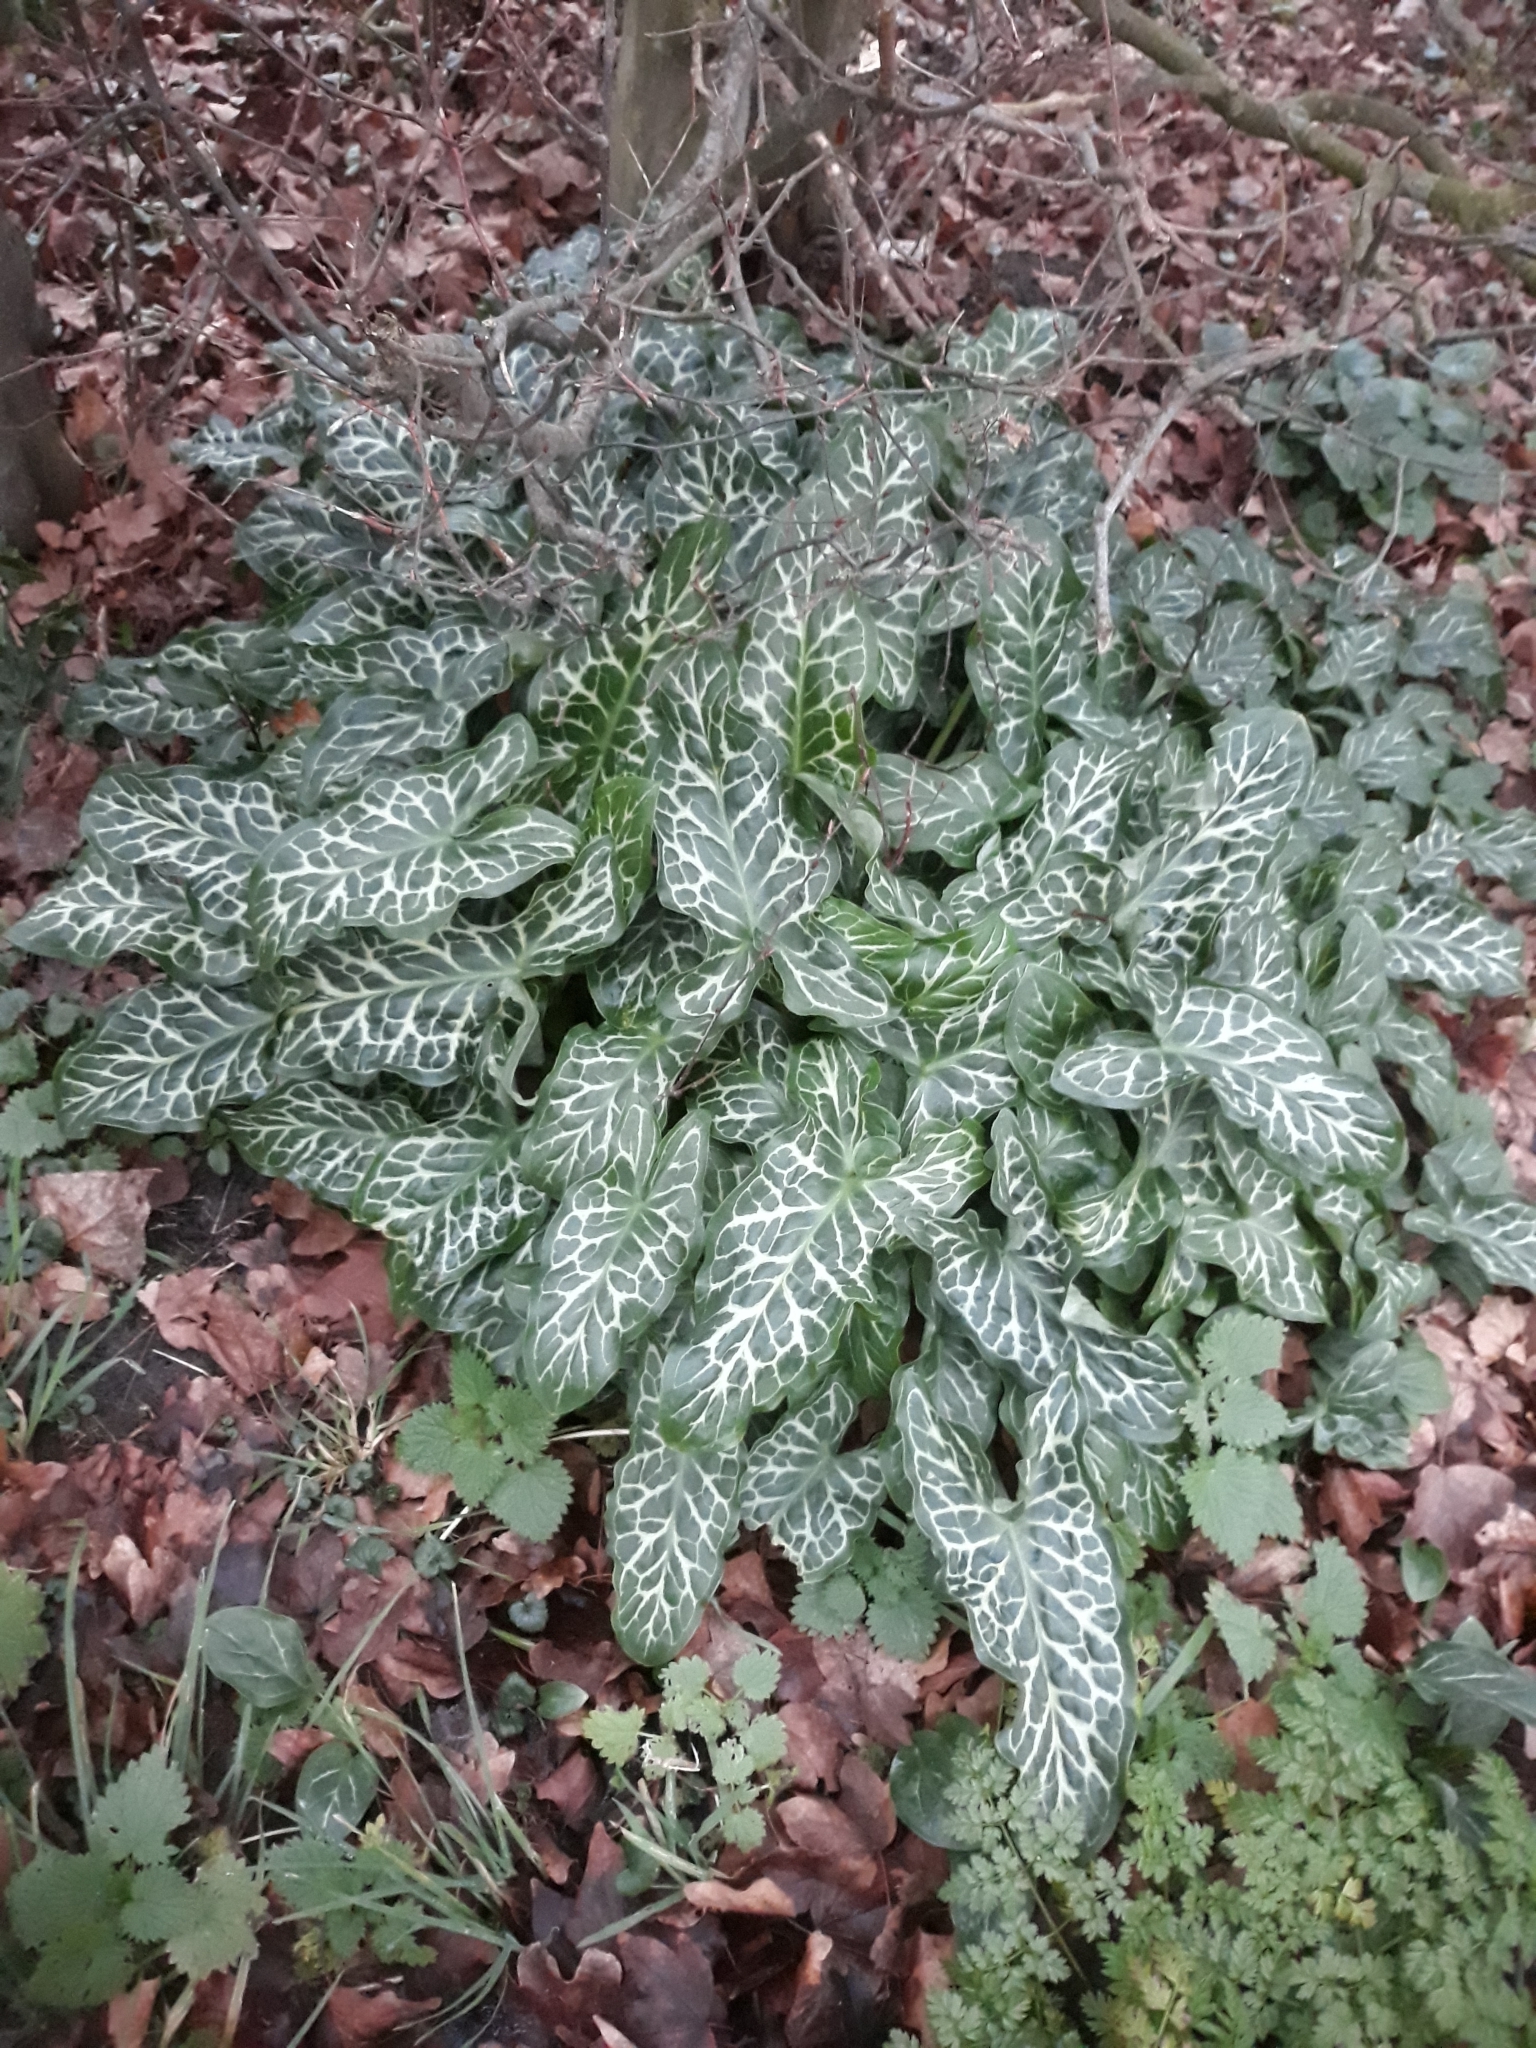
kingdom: Plantae
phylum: Tracheophyta
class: Liliopsida
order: Alismatales
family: Araceae
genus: Arum
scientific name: Arum italicum
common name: Italian lords-and-ladies
